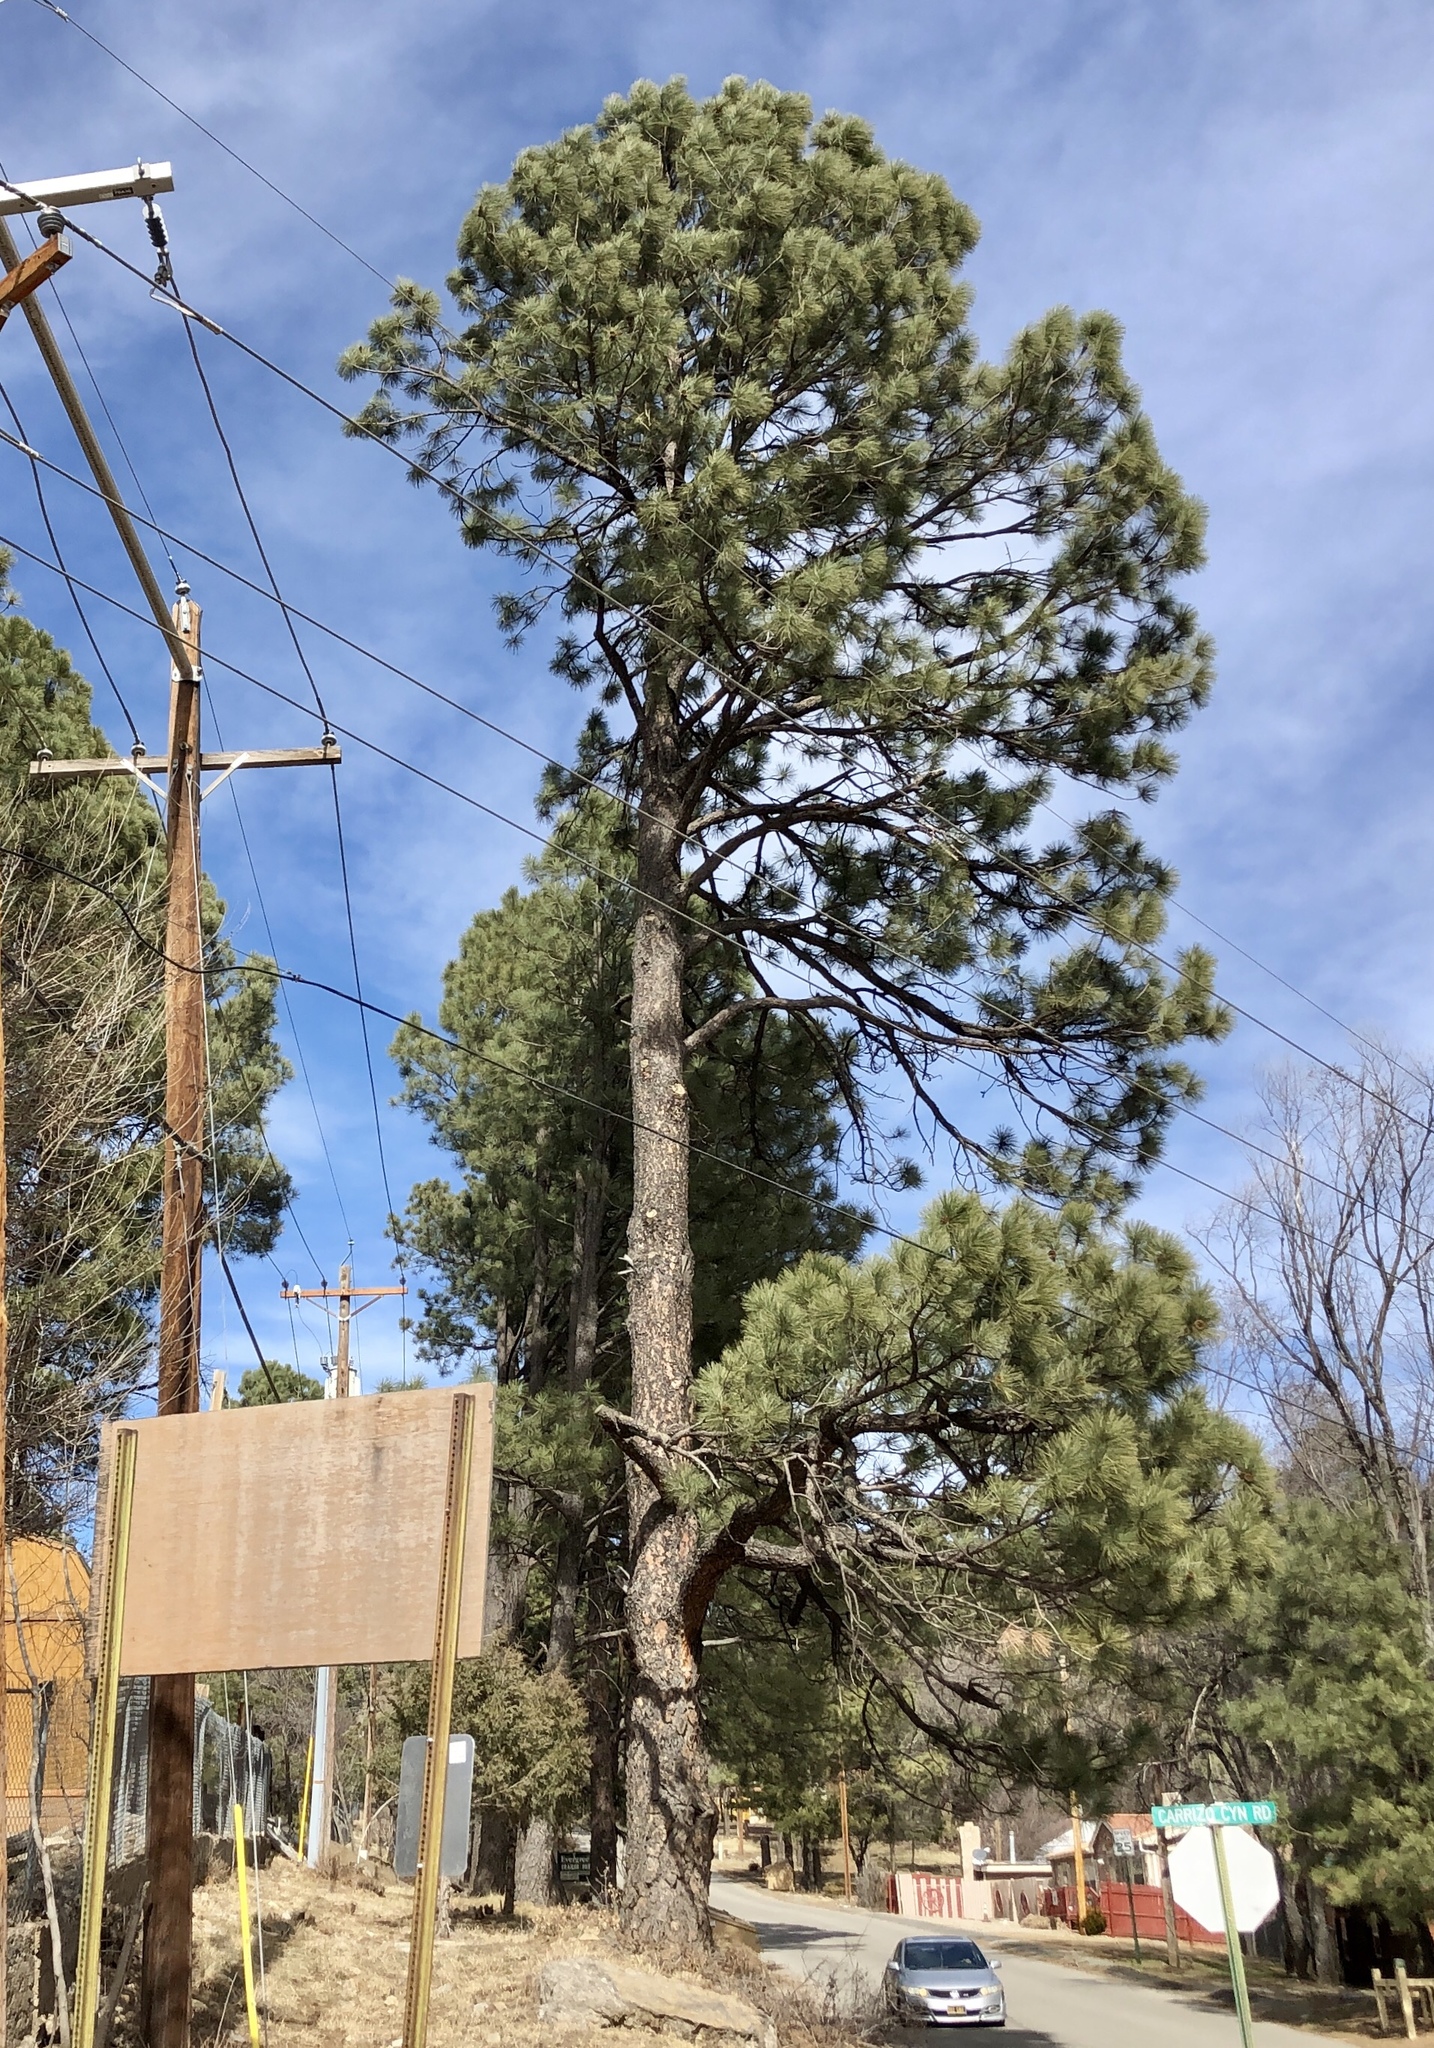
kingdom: Plantae
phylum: Tracheophyta
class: Pinopsida
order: Pinales
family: Pinaceae
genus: Pinus
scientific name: Pinus ponderosa
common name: Western yellow-pine
